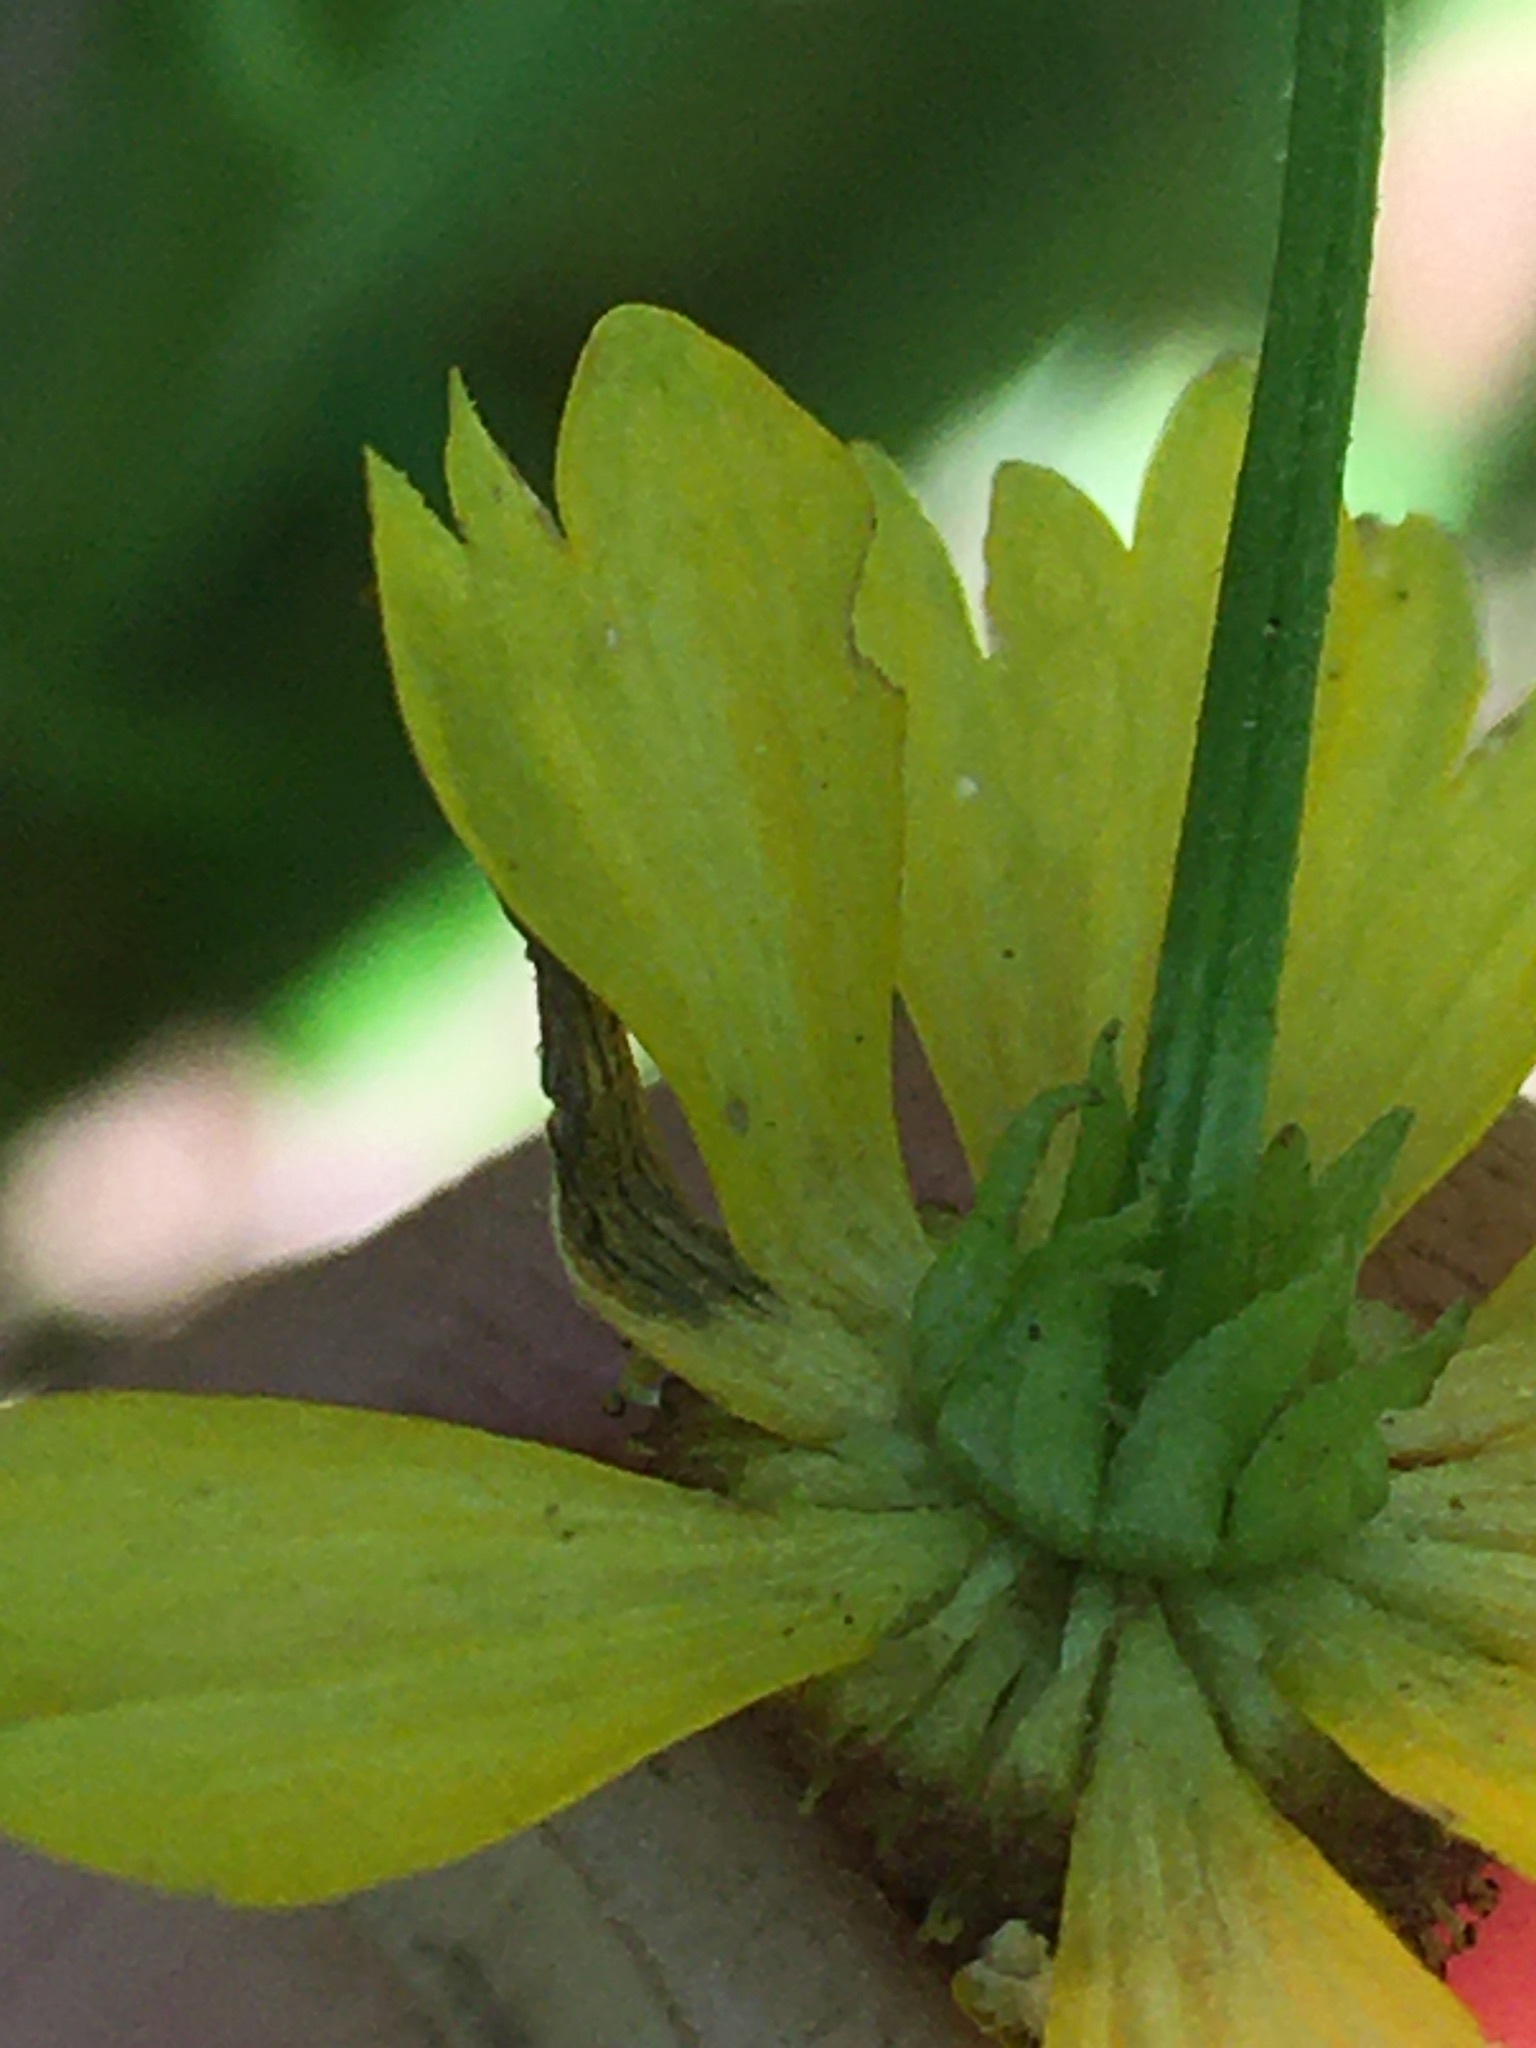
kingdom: Plantae
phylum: Tracheophyta
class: Magnoliopsida
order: Asterales
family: Asteraceae
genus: Helenium
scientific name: Helenium flexuosum
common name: Naked-flowered sneezeweed
